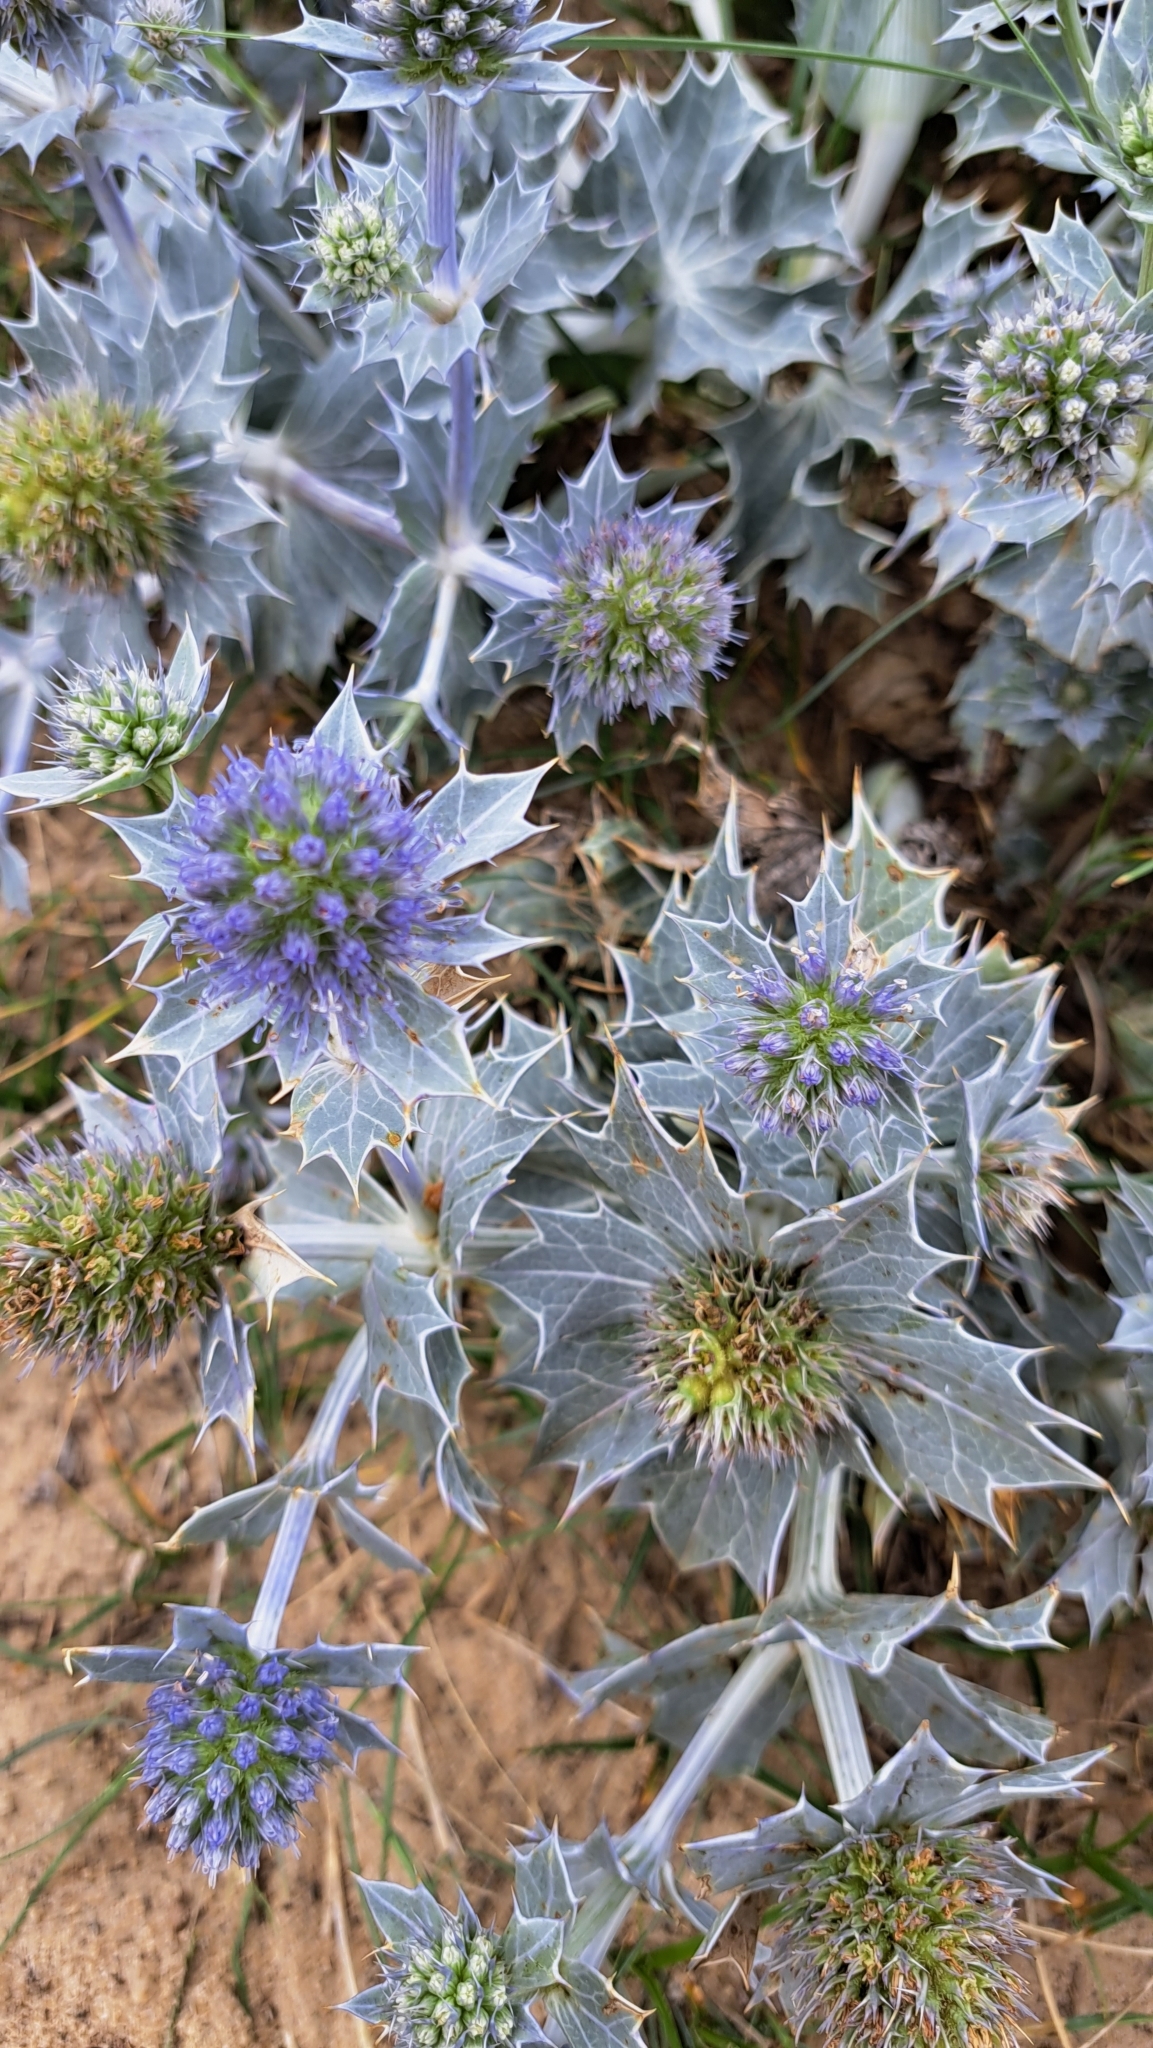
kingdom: Plantae
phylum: Tracheophyta
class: Magnoliopsida
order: Apiales
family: Apiaceae
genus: Eryngium
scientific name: Eryngium maritimum
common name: Sea-holly
